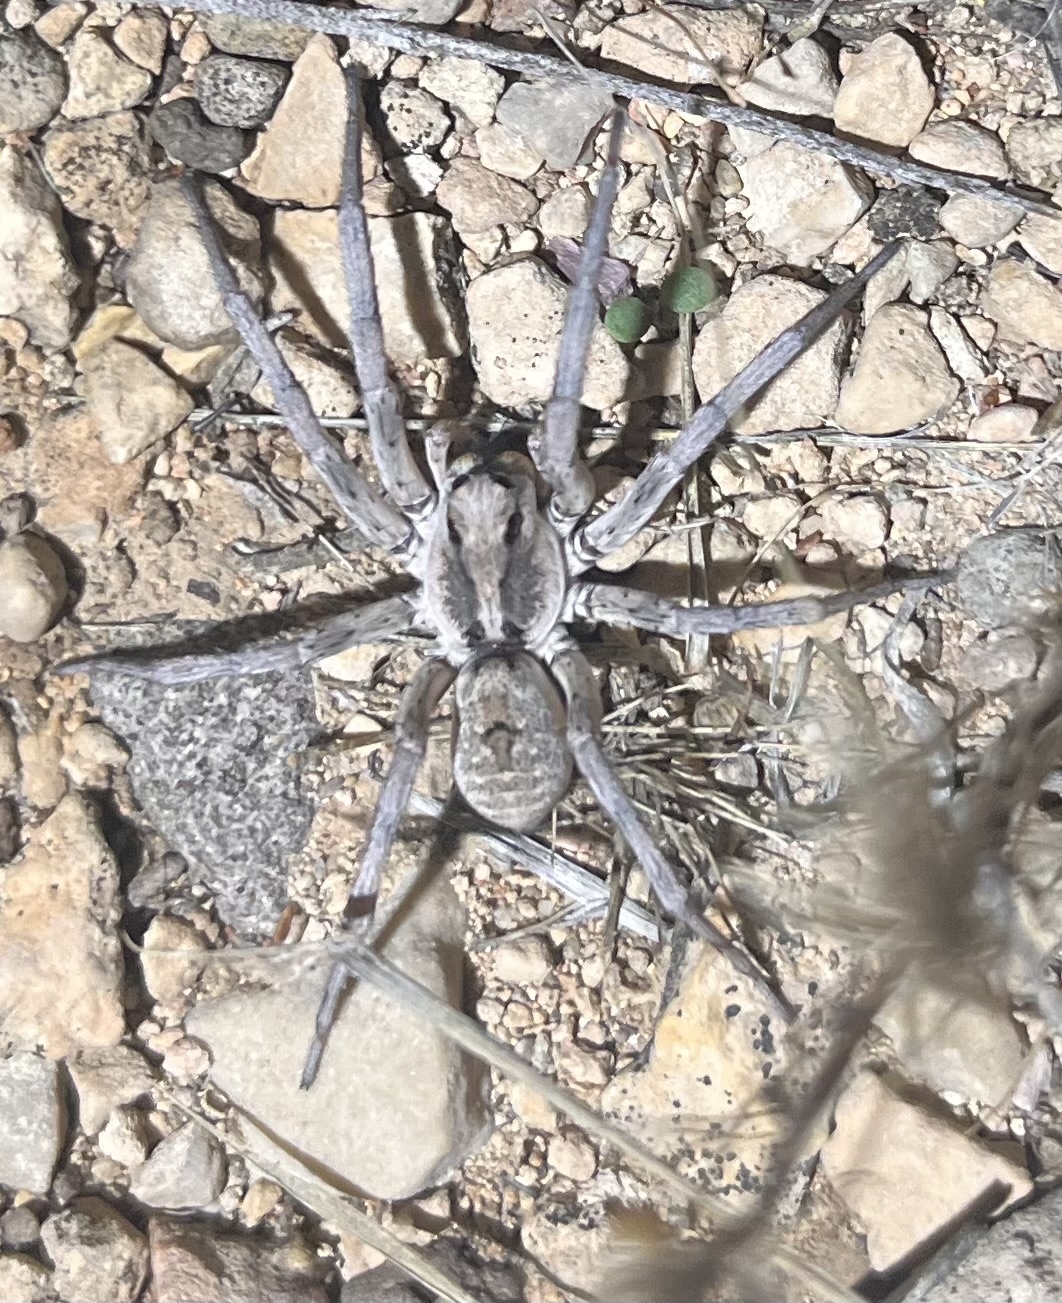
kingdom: Animalia
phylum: Arthropoda
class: Arachnida
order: Araneae
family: Lycosidae
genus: Hogna
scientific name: Hogna carolinensis
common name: Carolina wolf spider
